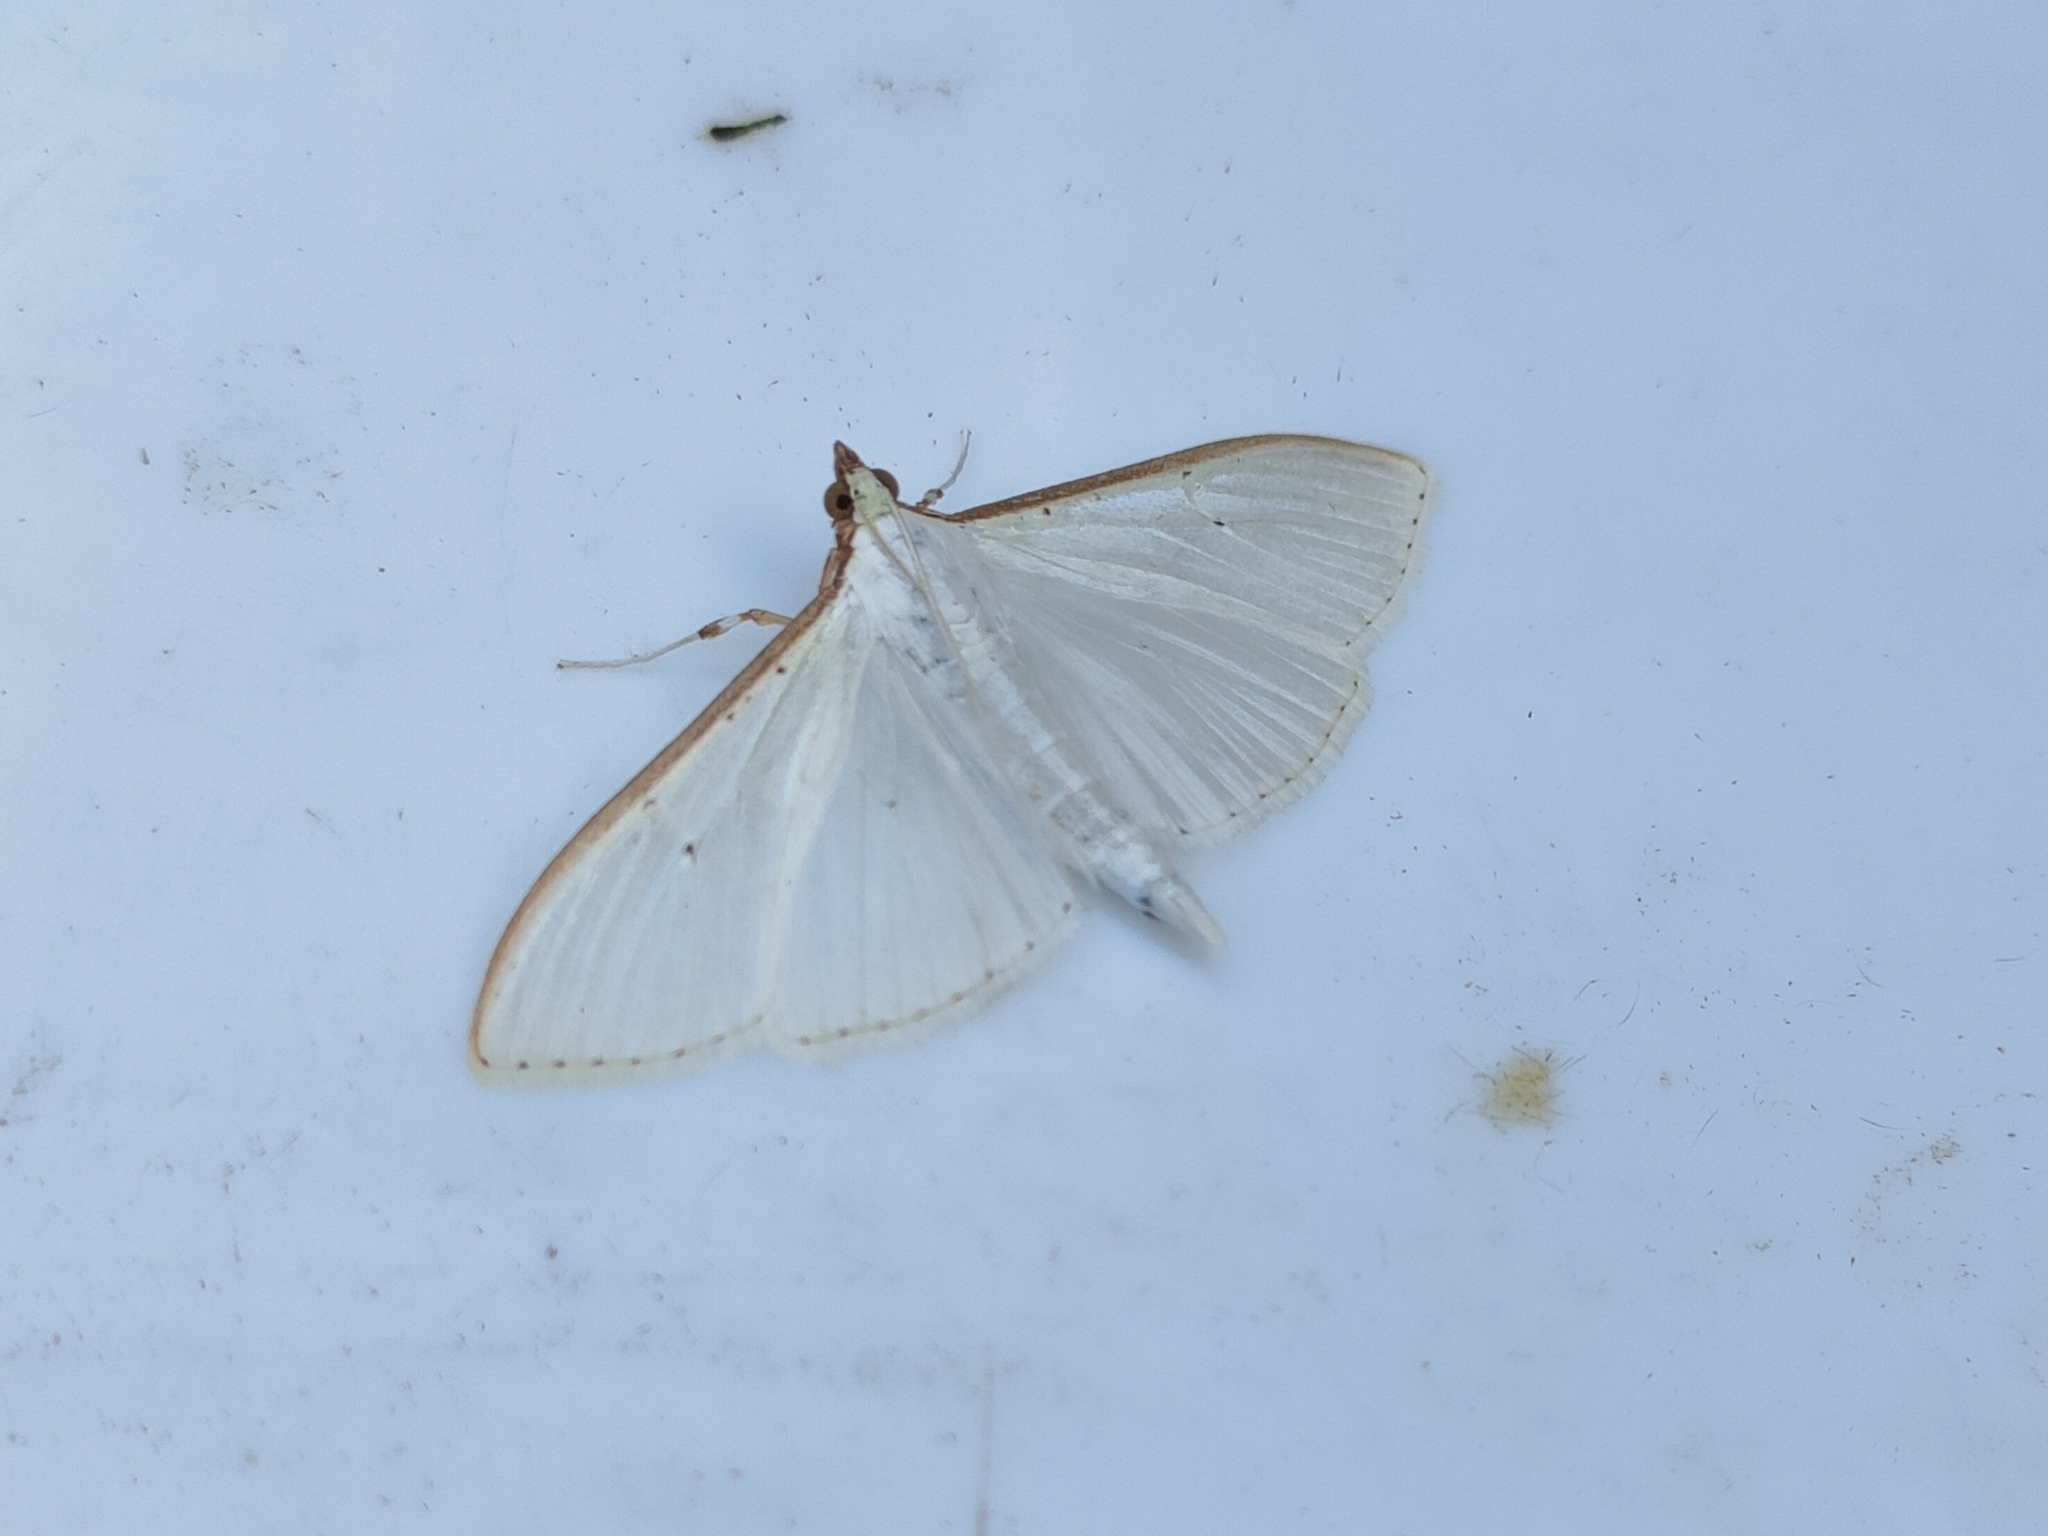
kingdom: Animalia
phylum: Arthropoda
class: Insecta
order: Lepidoptera
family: Crambidae
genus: Palpita
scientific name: Palpita vitrealis
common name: Olive-tree pearl
